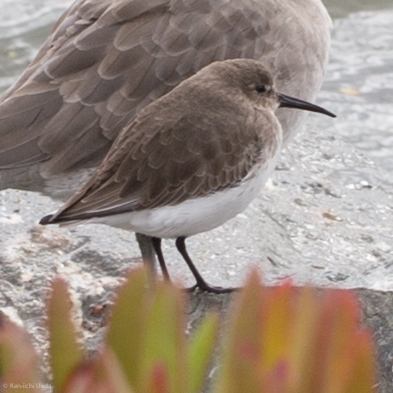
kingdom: Animalia
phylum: Chordata
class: Aves
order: Charadriiformes
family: Scolopacidae
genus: Calidris
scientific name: Calidris alpina
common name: Dunlin
